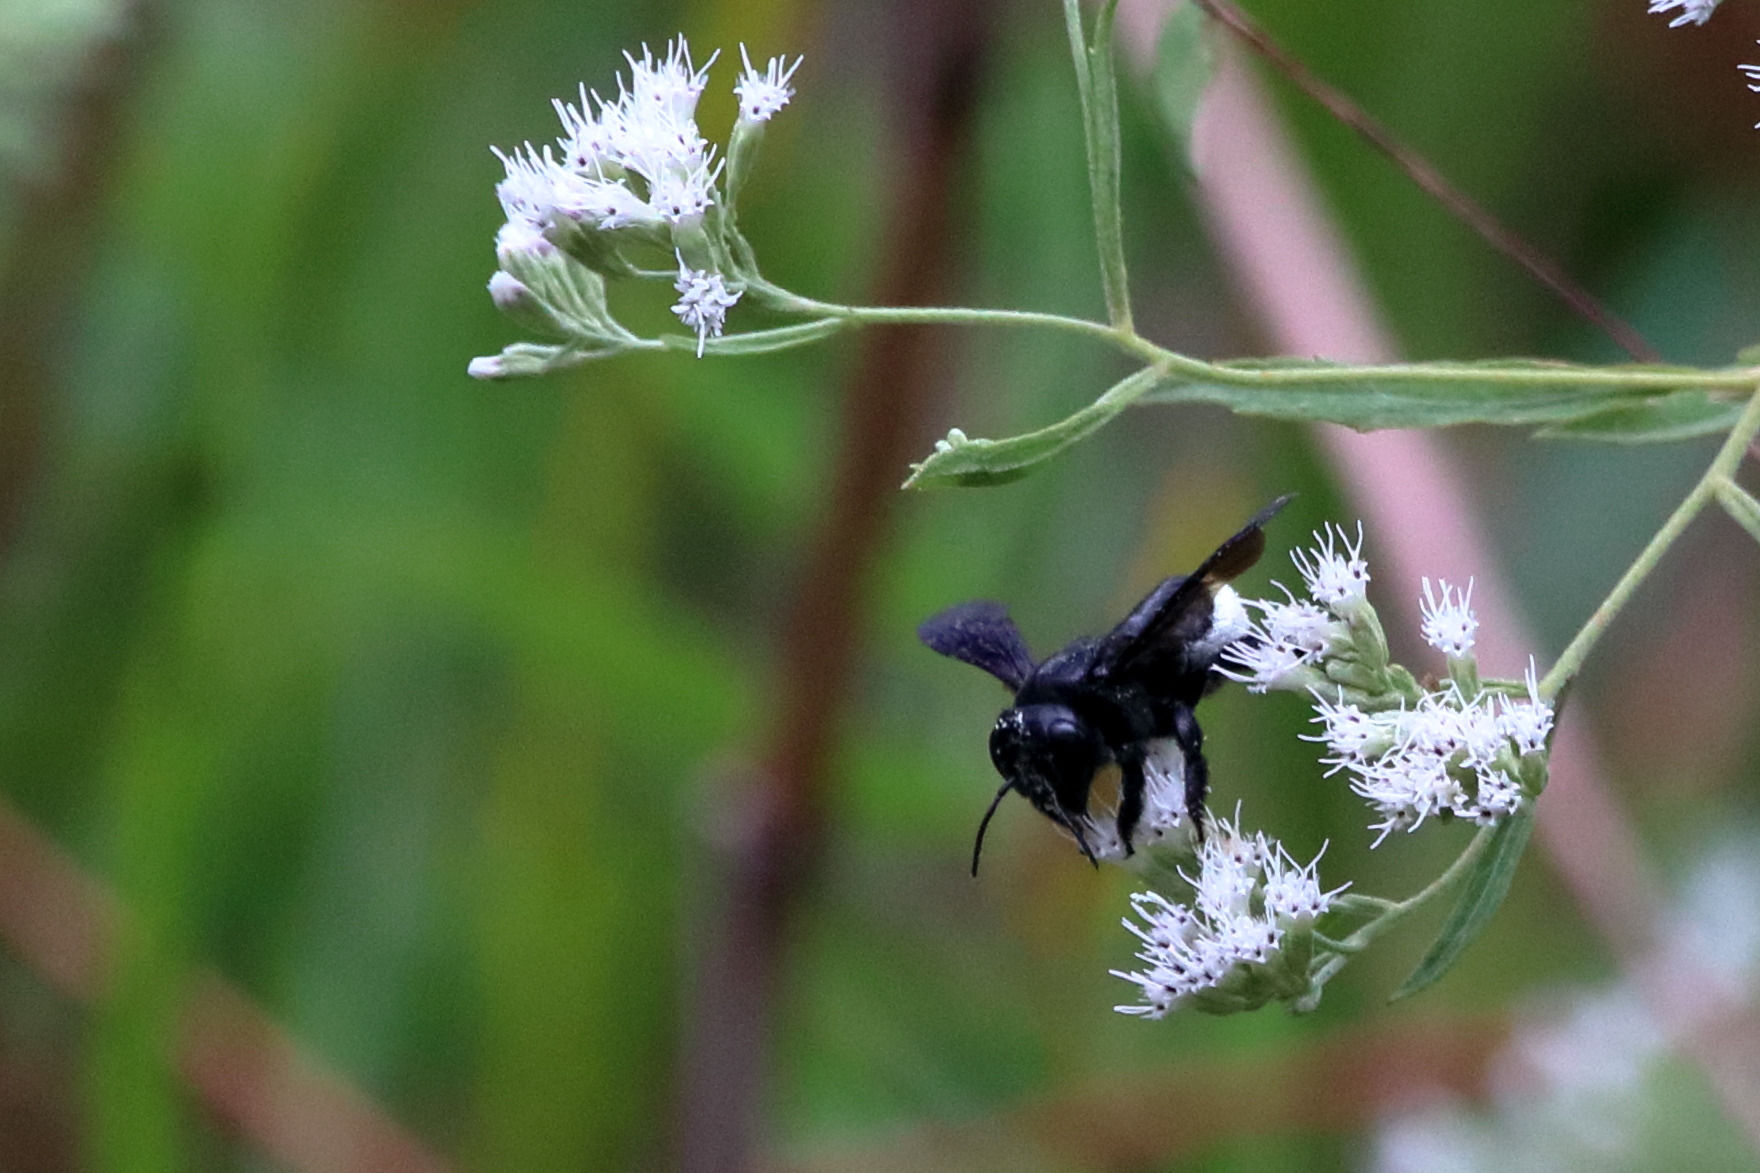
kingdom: Animalia
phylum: Arthropoda
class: Insecta
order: Hymenoptera
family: Megachilidae
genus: Megachile
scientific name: Megachile xylocopoides
